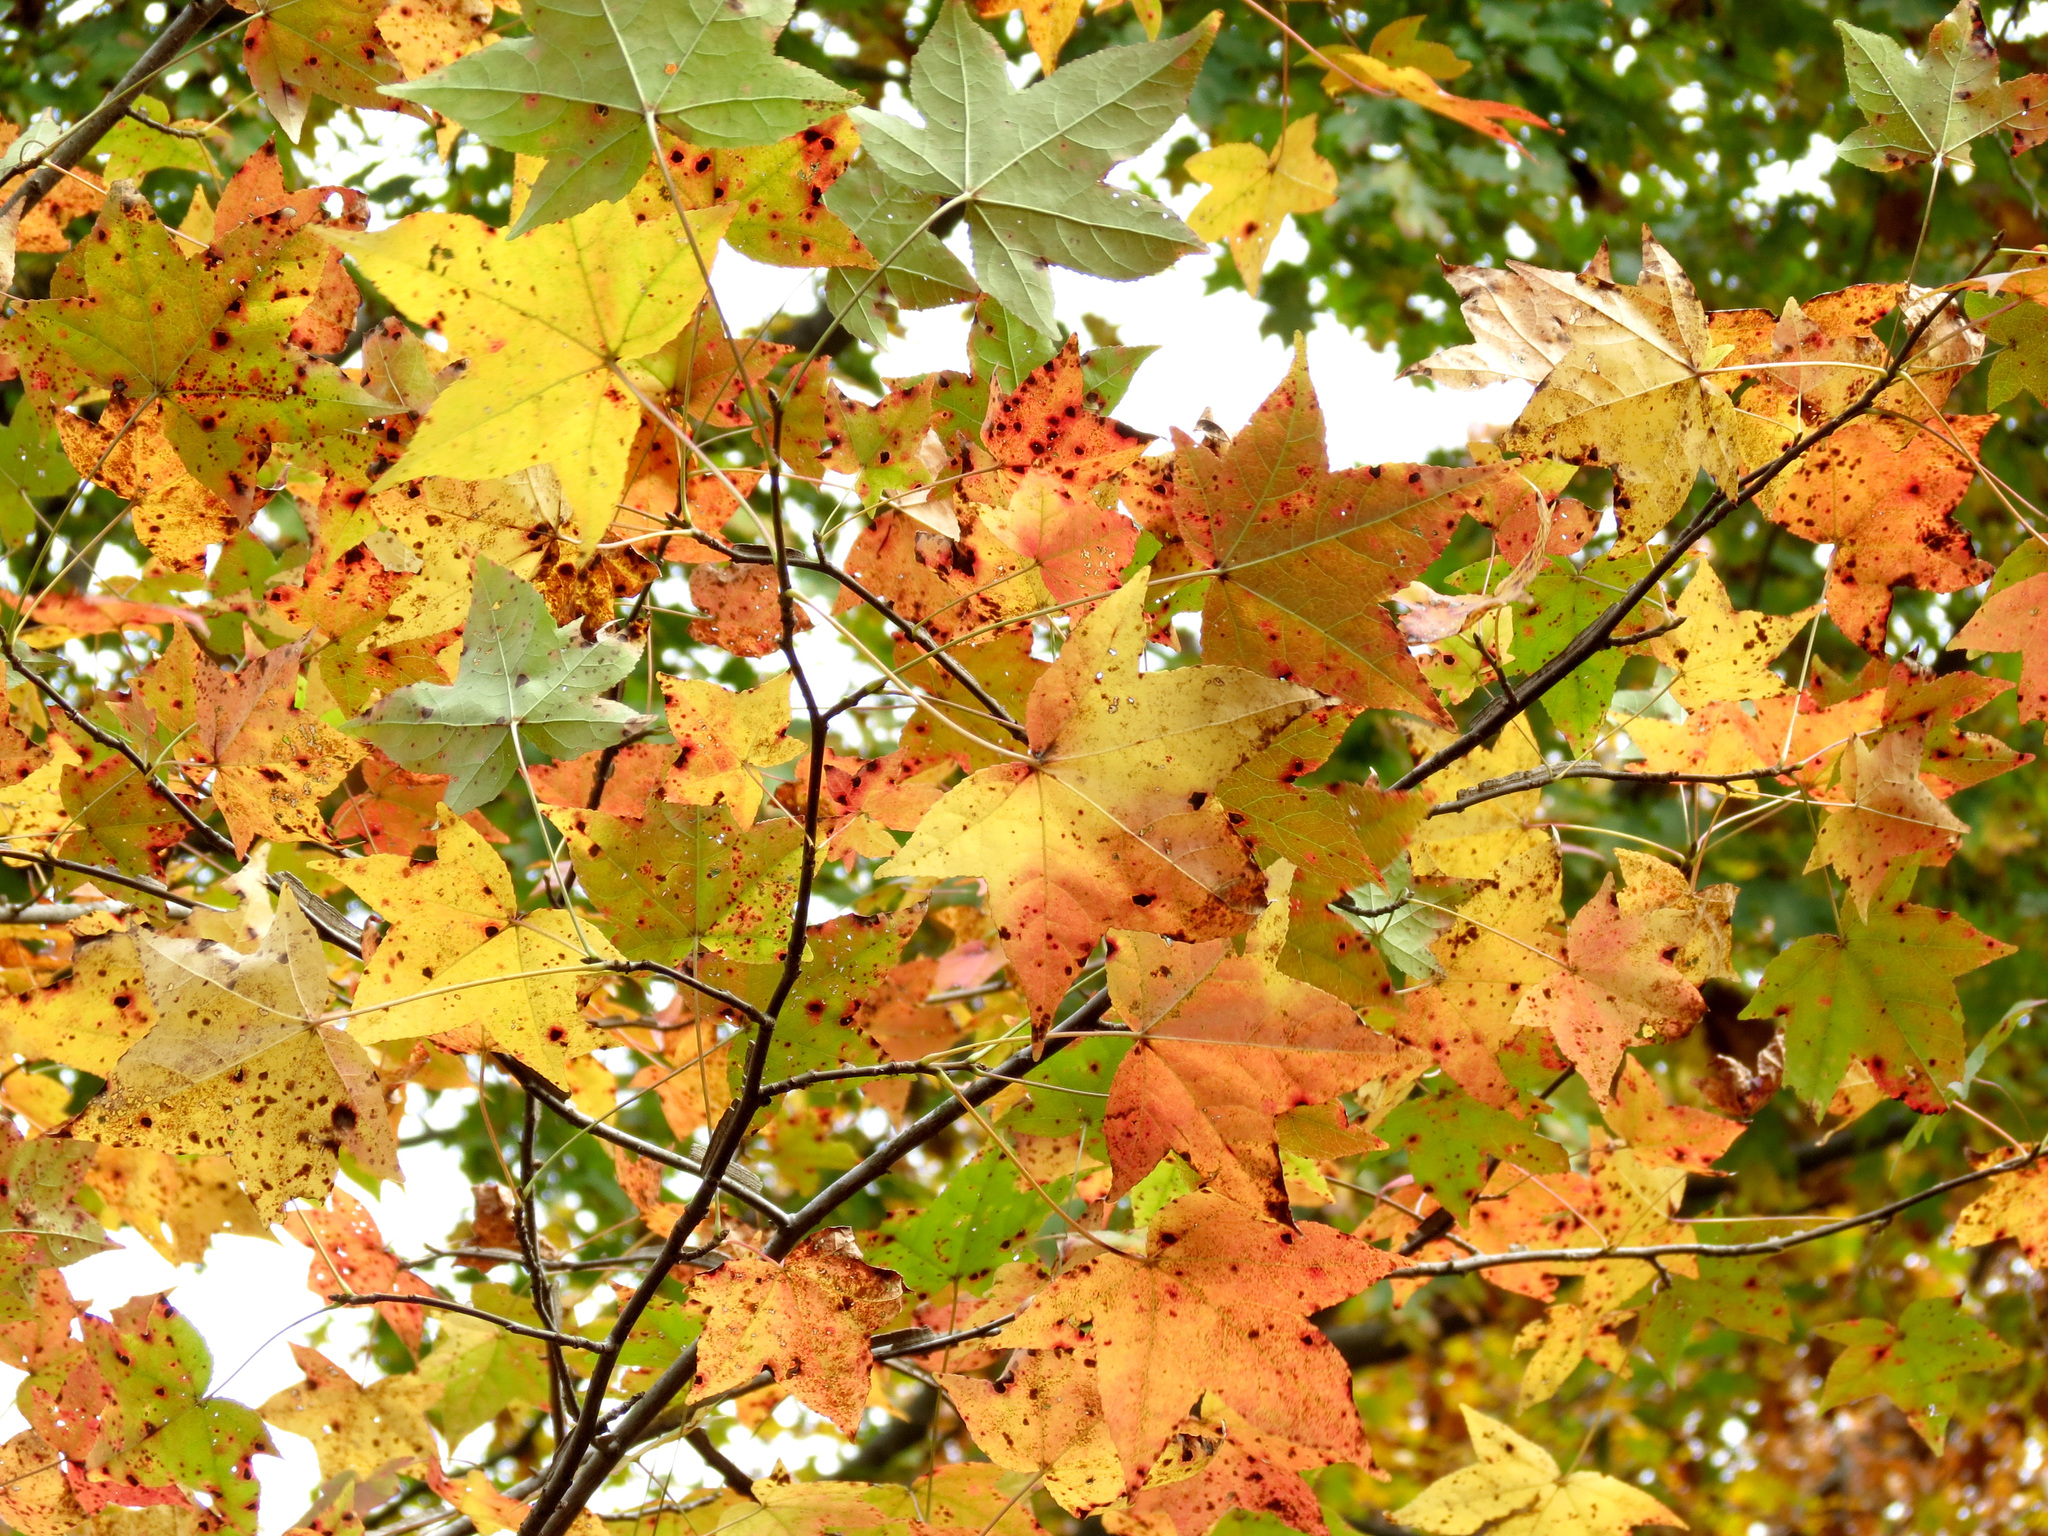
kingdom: Plantae
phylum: Tracheophyta
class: Magnoliopsida
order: Saxifragales
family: Altingiaceae
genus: Liquidambar
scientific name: Liquidambar styraciflua
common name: Sweet gum
